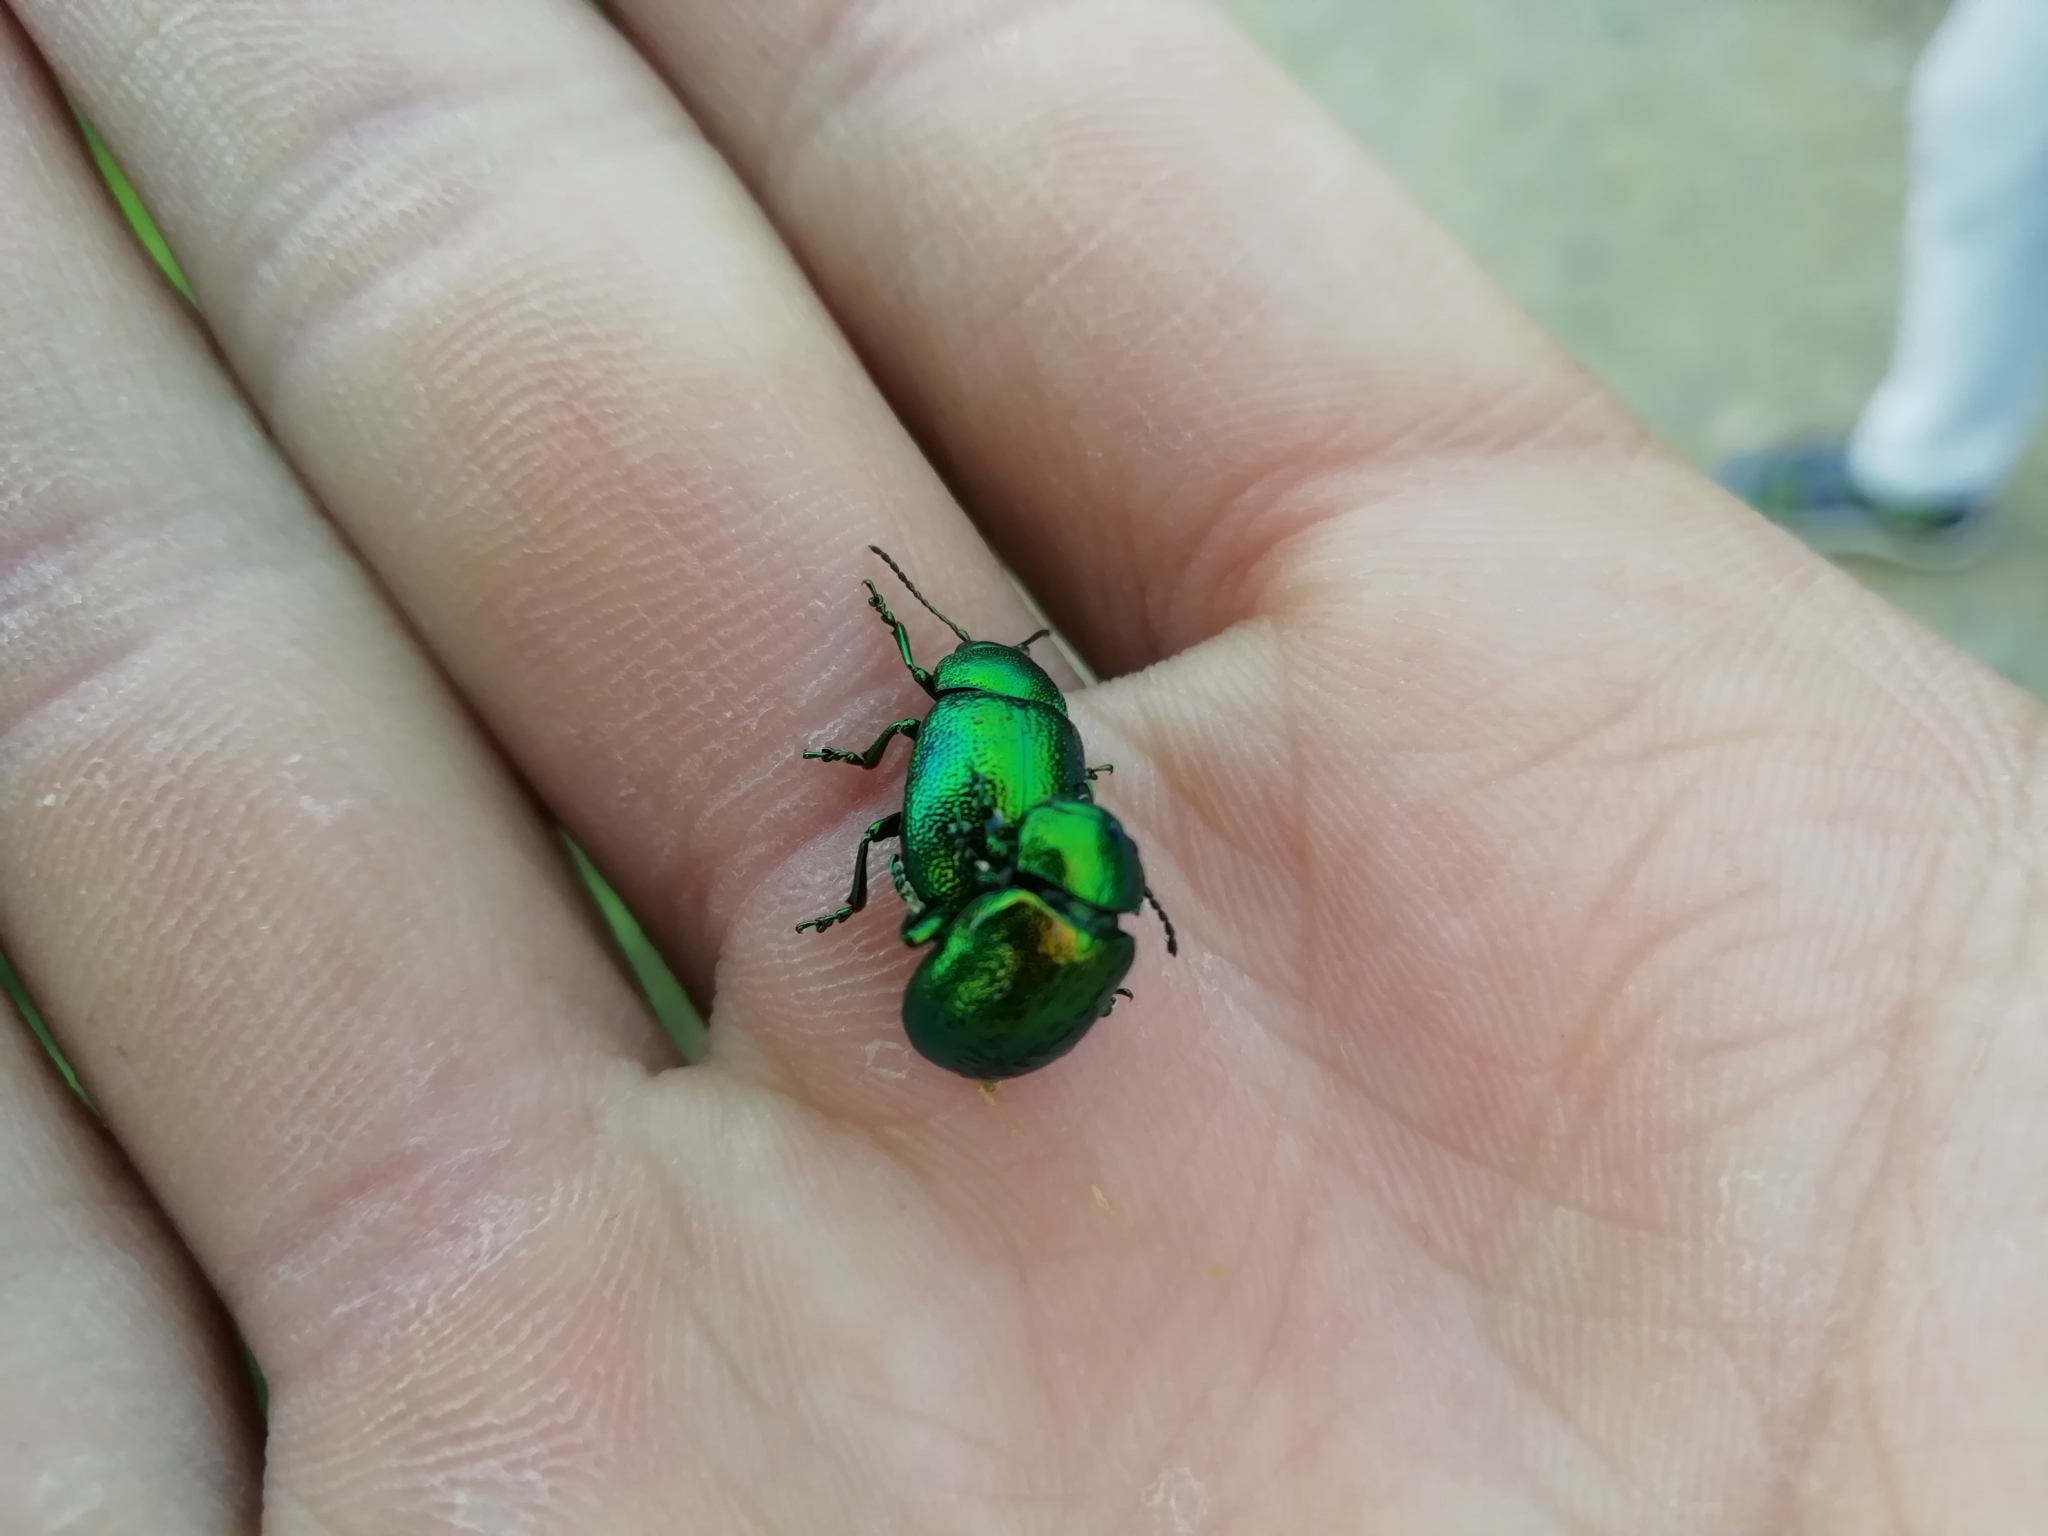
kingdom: Animalia
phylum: Arthropoda
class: Insecta
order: Coleoptera
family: Chrysomelidae
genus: Chrysolina
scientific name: Chrysolina graminis
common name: Tansey beetle
